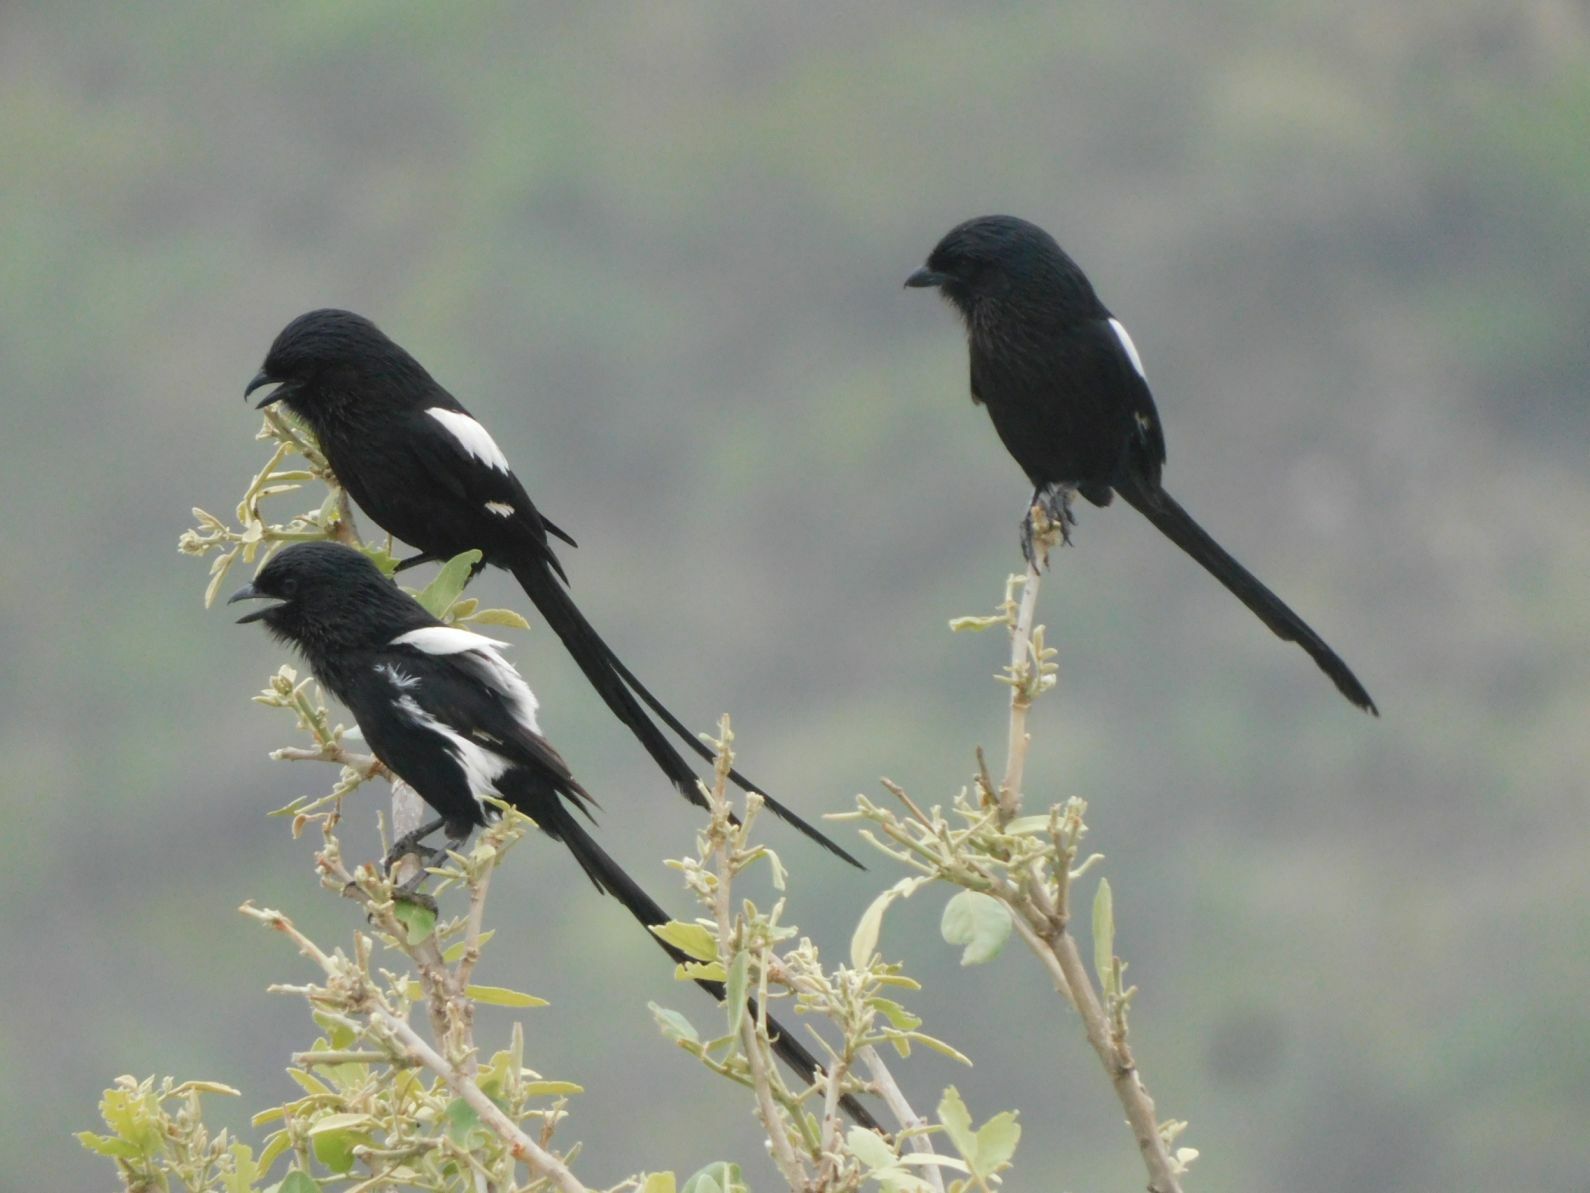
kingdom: Animalia
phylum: Chordata
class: Aves
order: Passeriformes
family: Laniidae
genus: Urolestes
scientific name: Urolestes melanoleucus
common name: Magpie shrike
